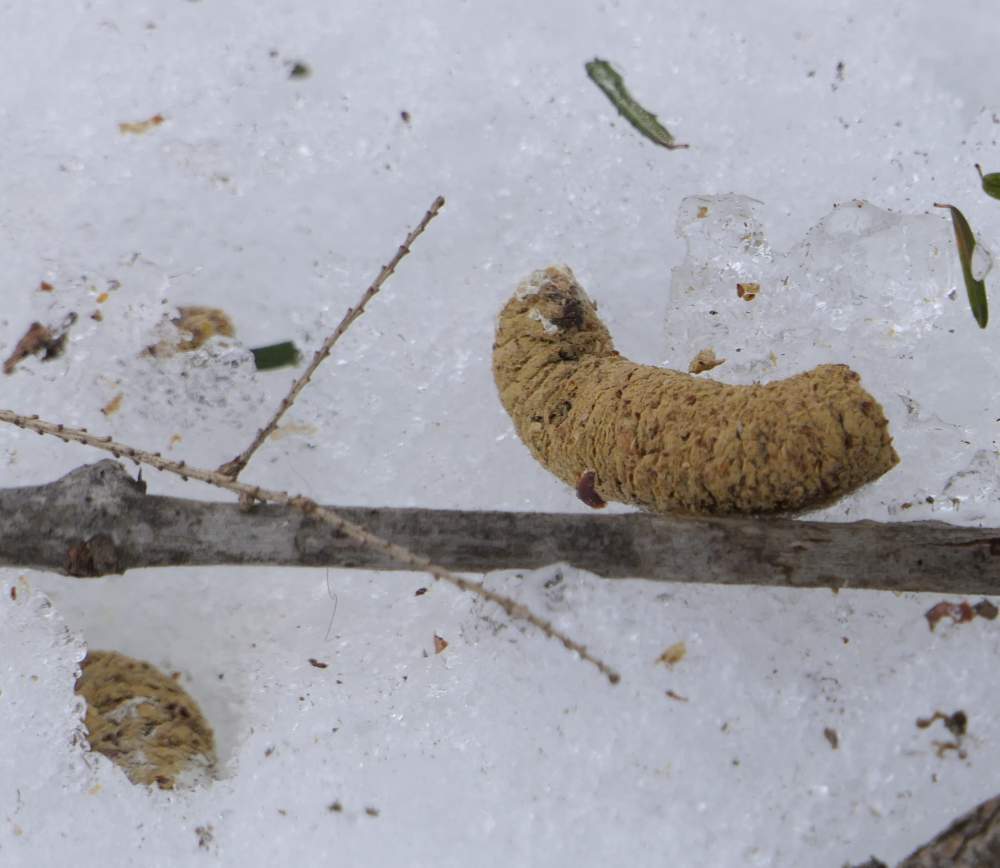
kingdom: Animalia
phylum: Chordata
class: Aves
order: Galliformes
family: Phasianidae
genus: Bonasa
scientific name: Bonasa umbellus
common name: Ruffed grouse
